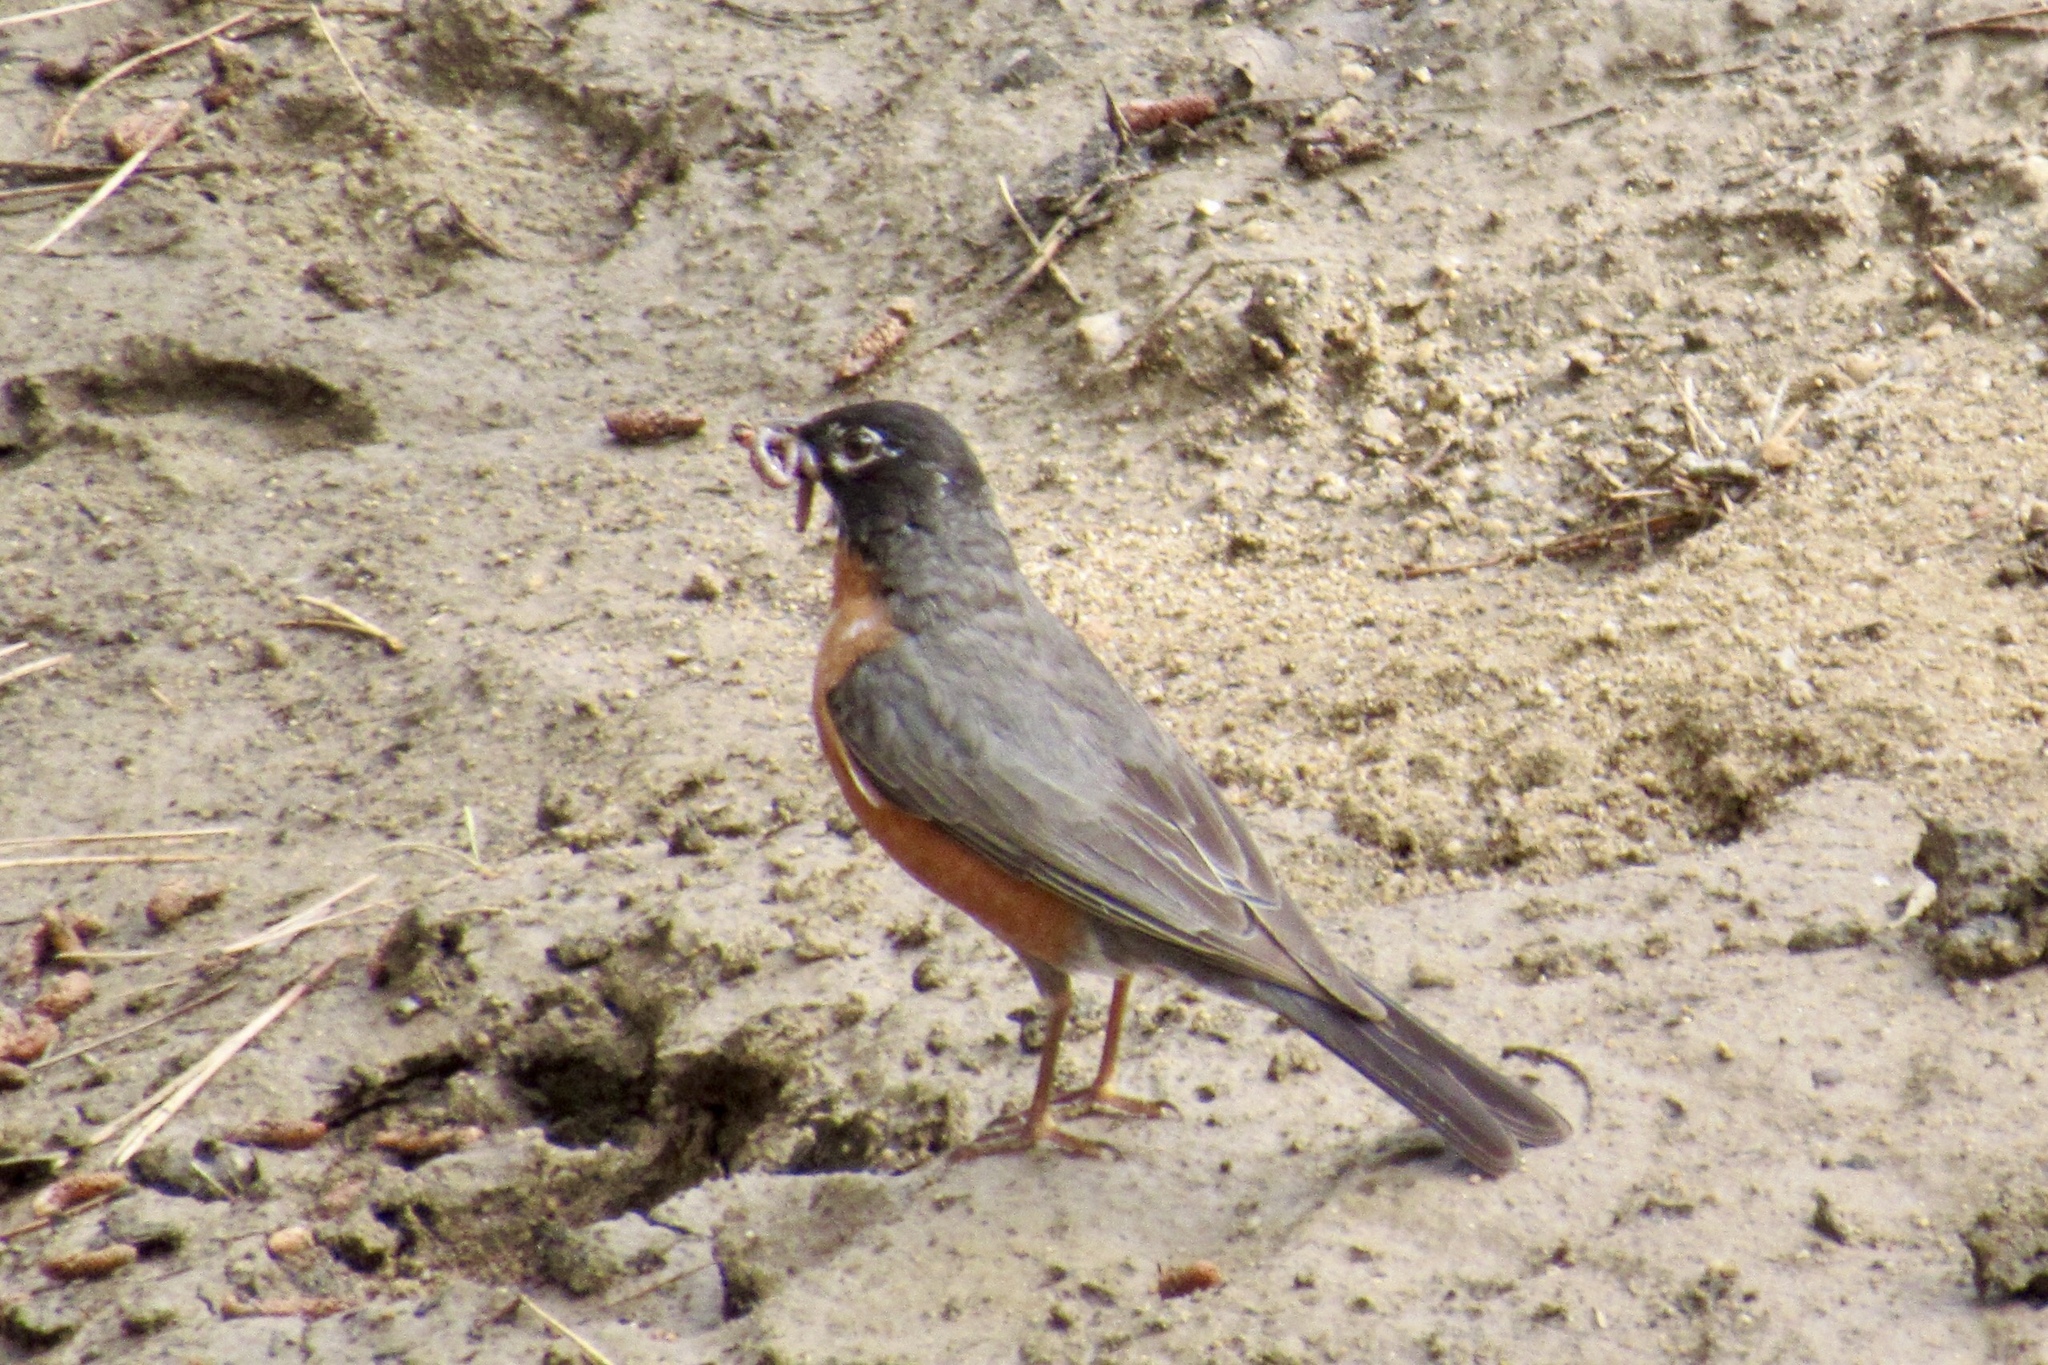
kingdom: Animalia
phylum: Chordata
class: Aves
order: Passeriformes
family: Turdidae
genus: Turdus
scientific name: Turdus migratorius
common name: American robin
